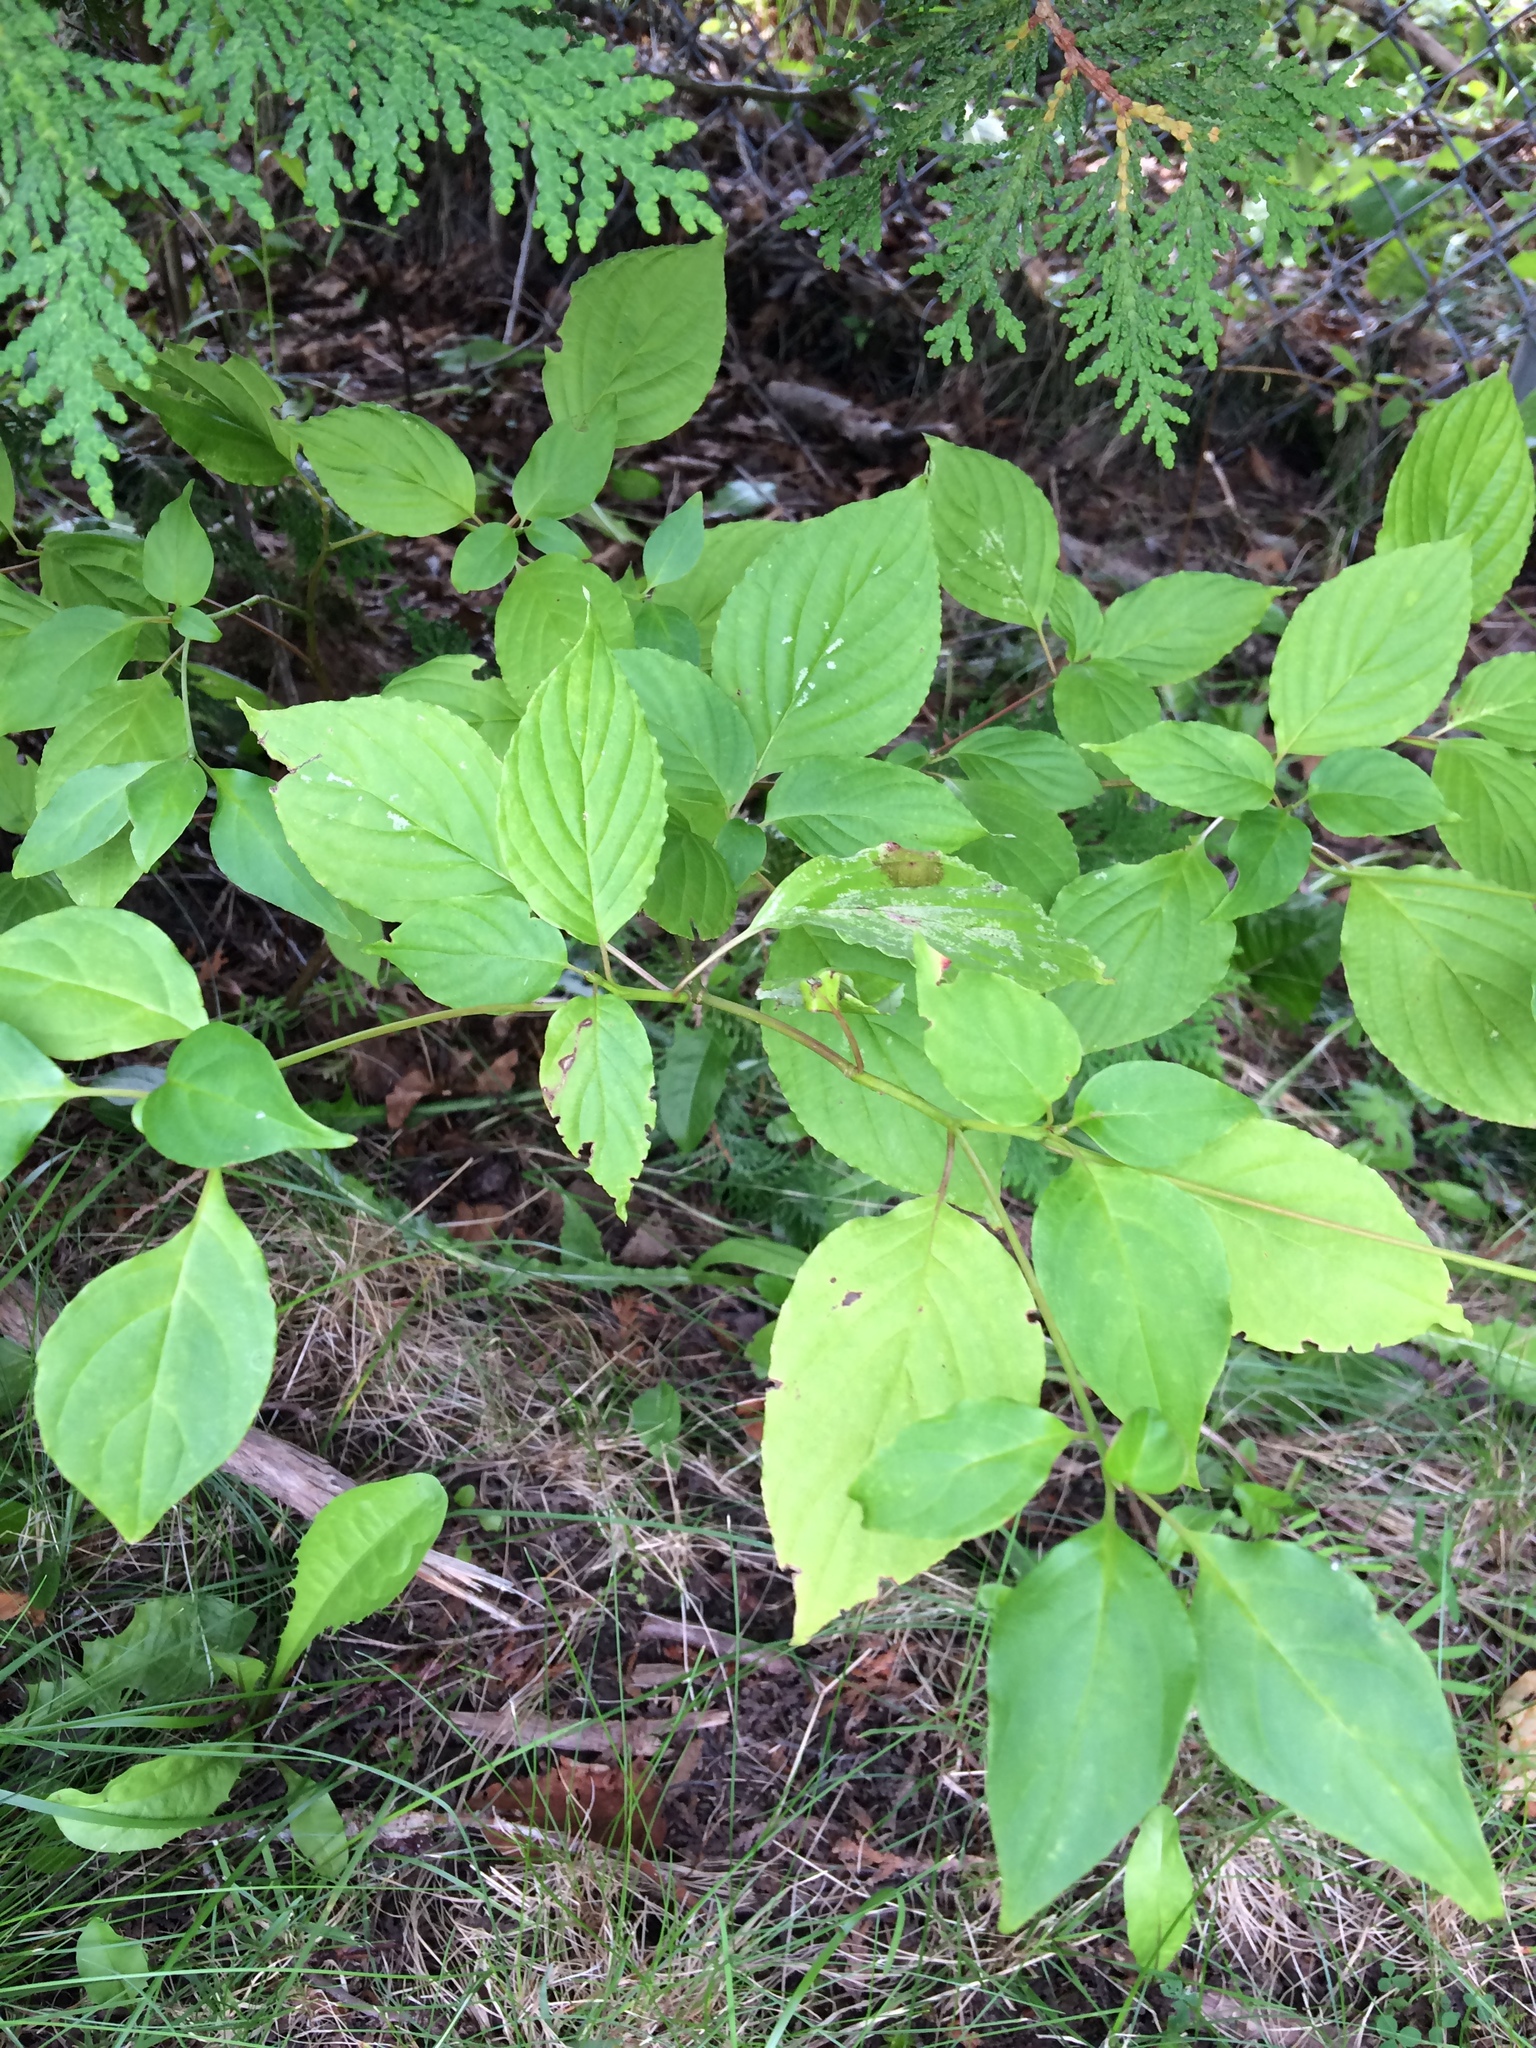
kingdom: Plantae
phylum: Tracheophyta
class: Magnoliopsida
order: Cornales
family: Cornaceae
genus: Cornus
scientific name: Cornus alternifolia
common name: Pagoda dogwood
